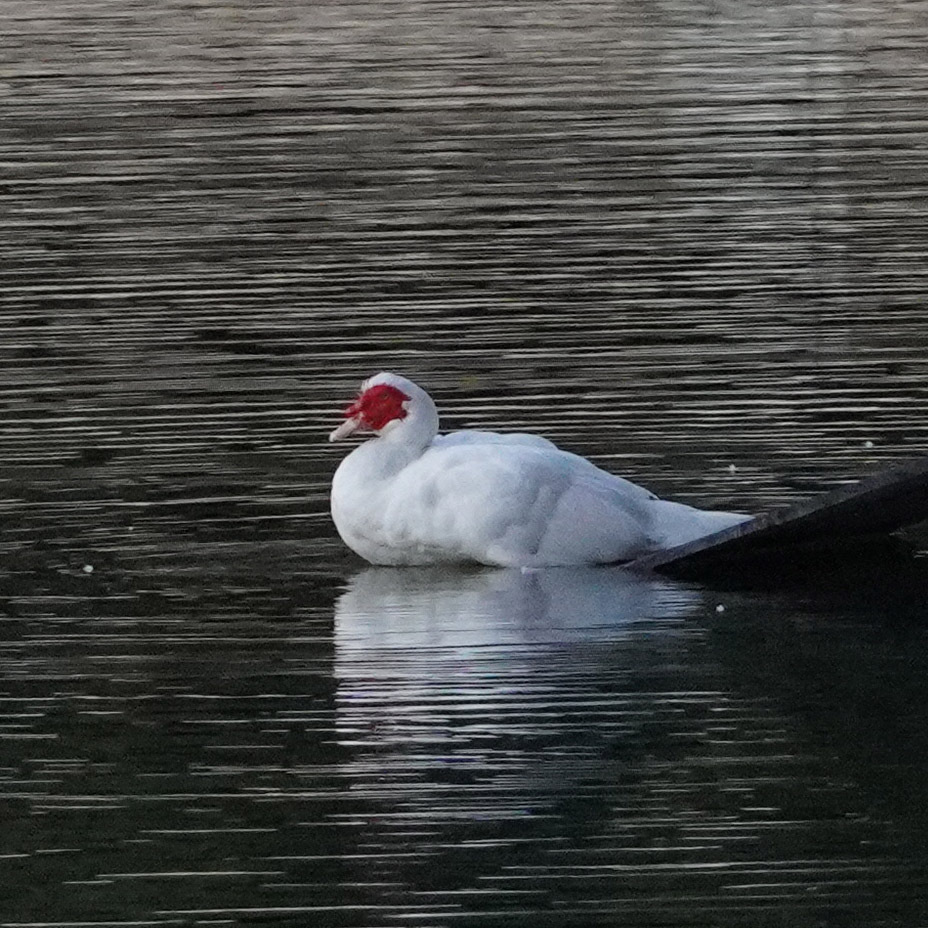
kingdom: Animalia
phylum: Chordata
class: Aves
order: Anseriformes
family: Anatidae
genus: Cairina
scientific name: Cairina moschata
